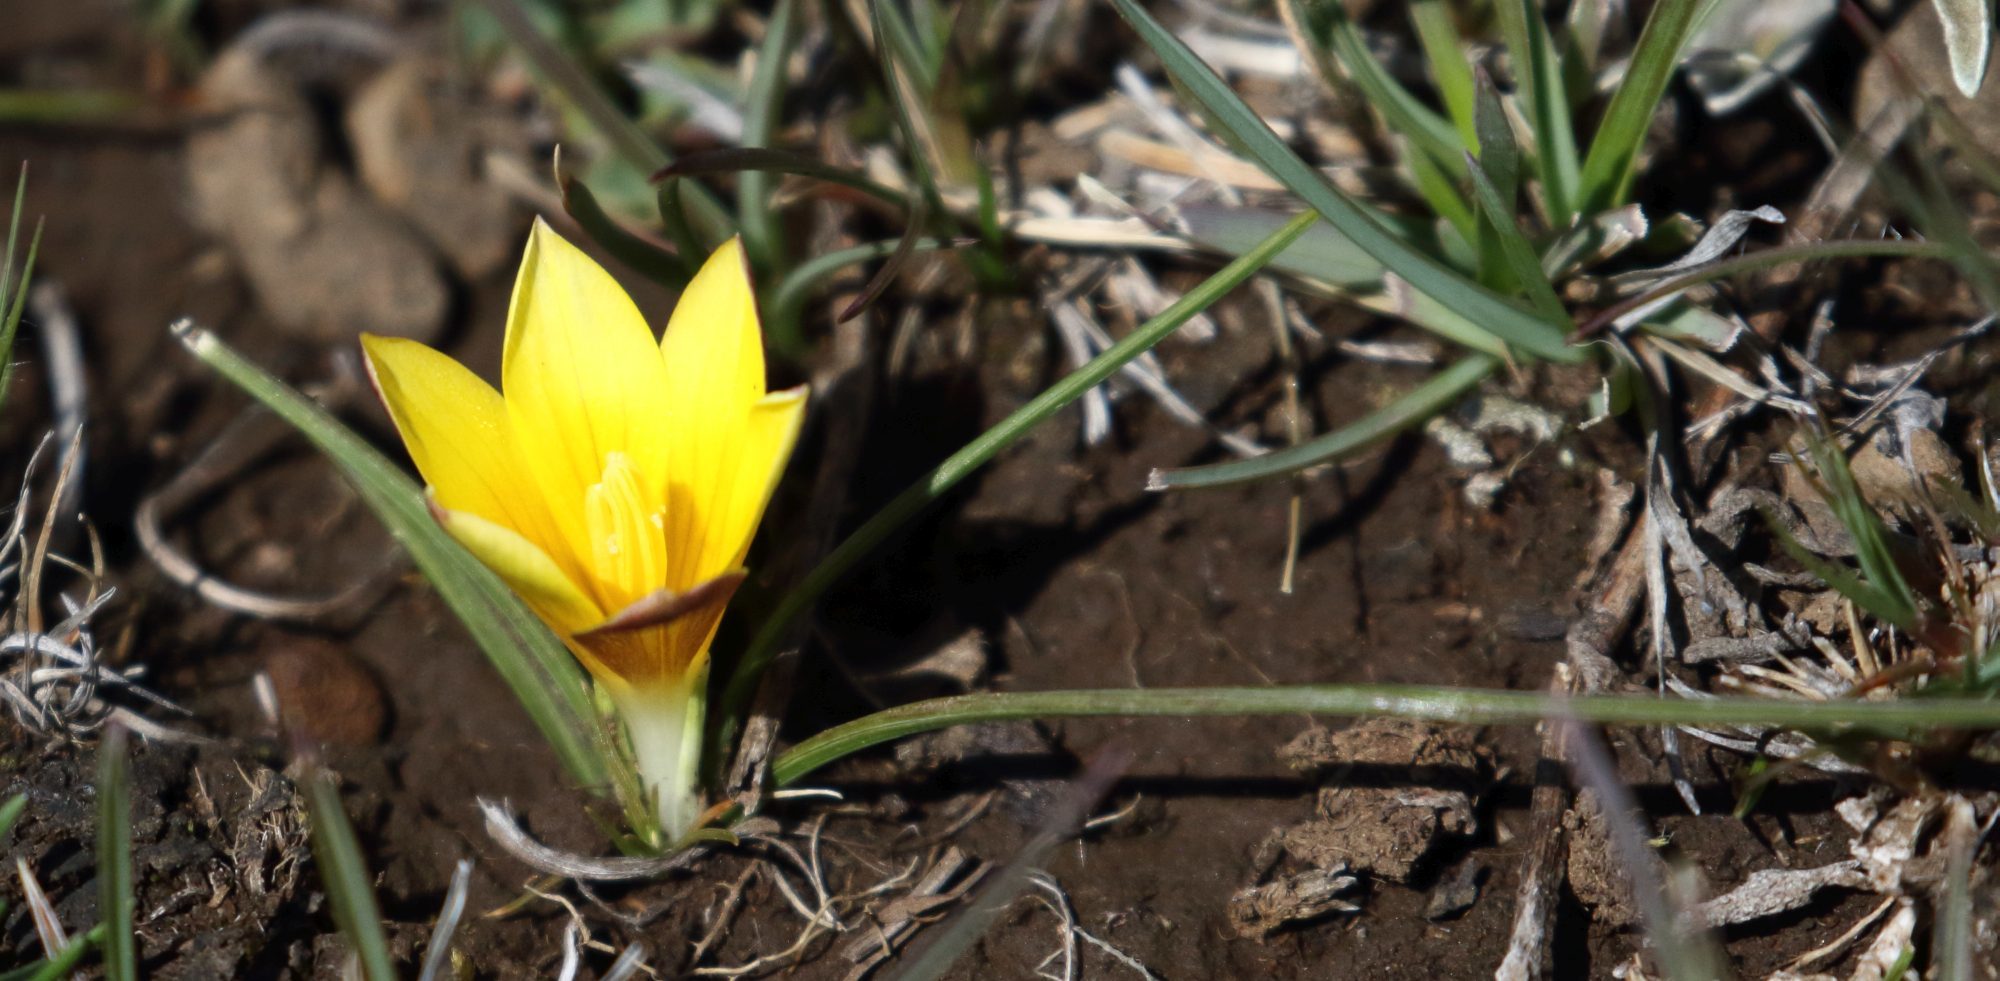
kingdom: Plantae
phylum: Tracheophyta
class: Liliopsida
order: Asparagales
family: Iridaceae
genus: Romulea
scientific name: Romulea macowanii
